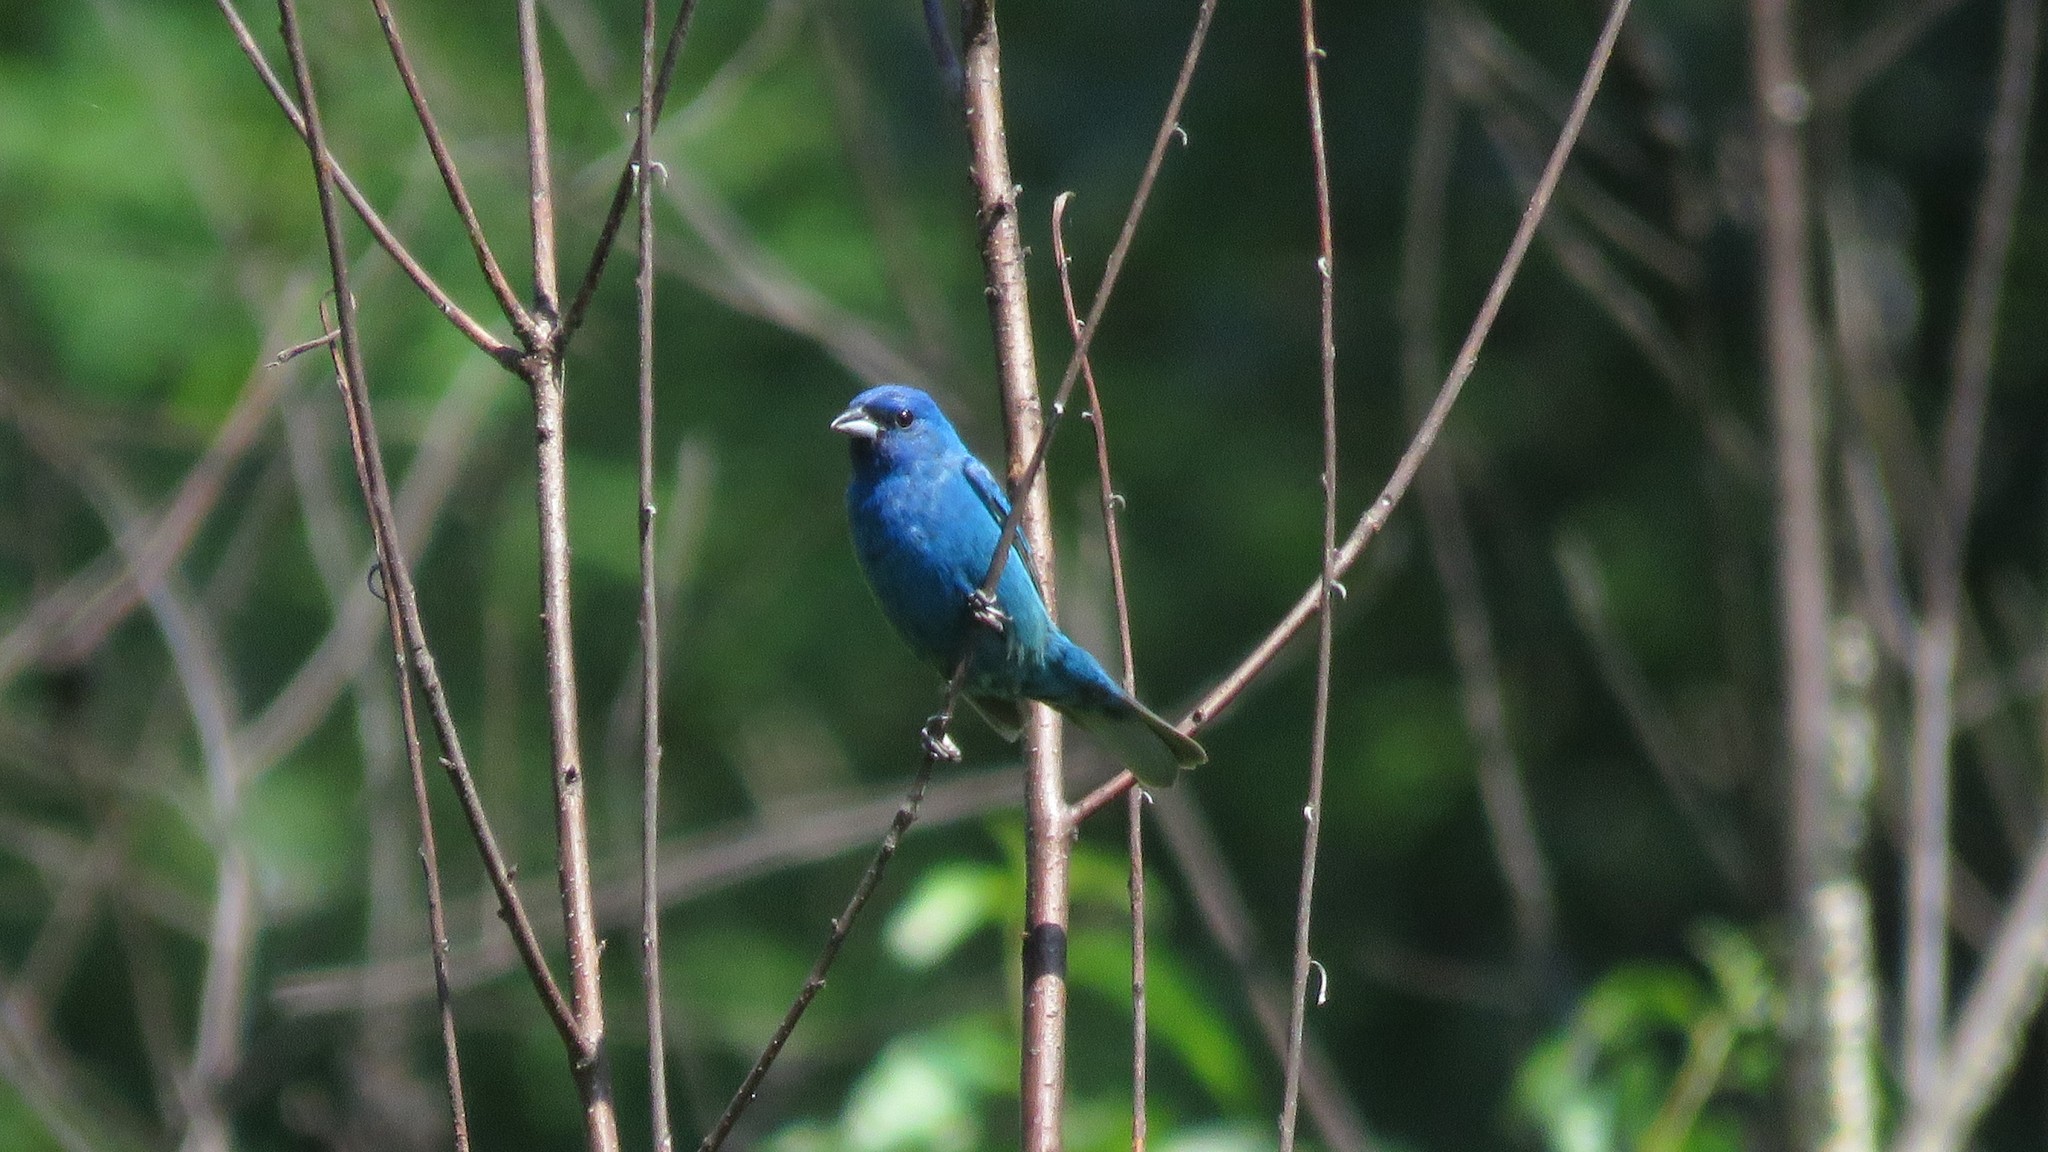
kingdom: Animalia
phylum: Chordata
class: Aves
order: Passeriformes
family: Cardinalidae
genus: Passerina
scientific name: Passerina cyanea
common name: Indigo bunting
